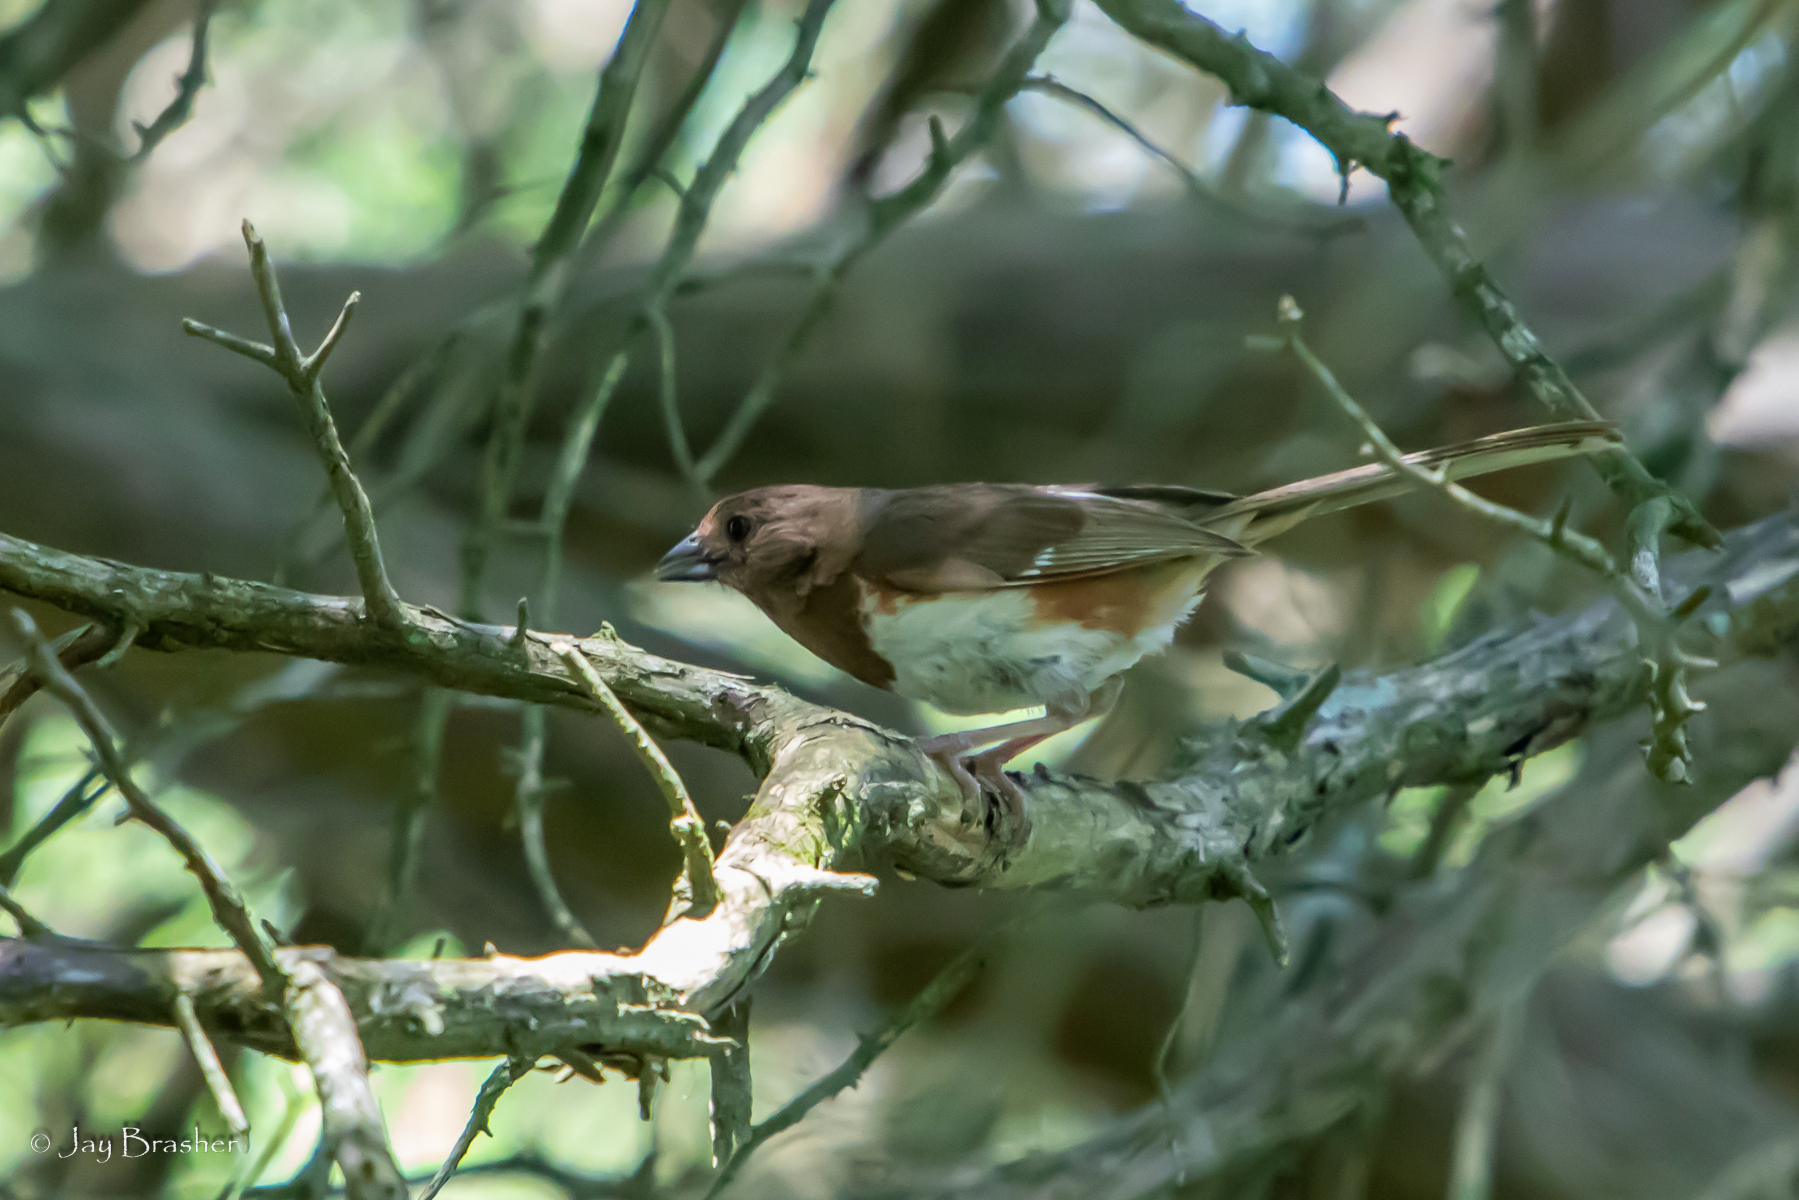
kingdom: Animalia
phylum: Chordata
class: Aves
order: Passeriformes
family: Passerellidae
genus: Pipilo
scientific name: Pipilo erythrophthalmus
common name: Eastern towhee
